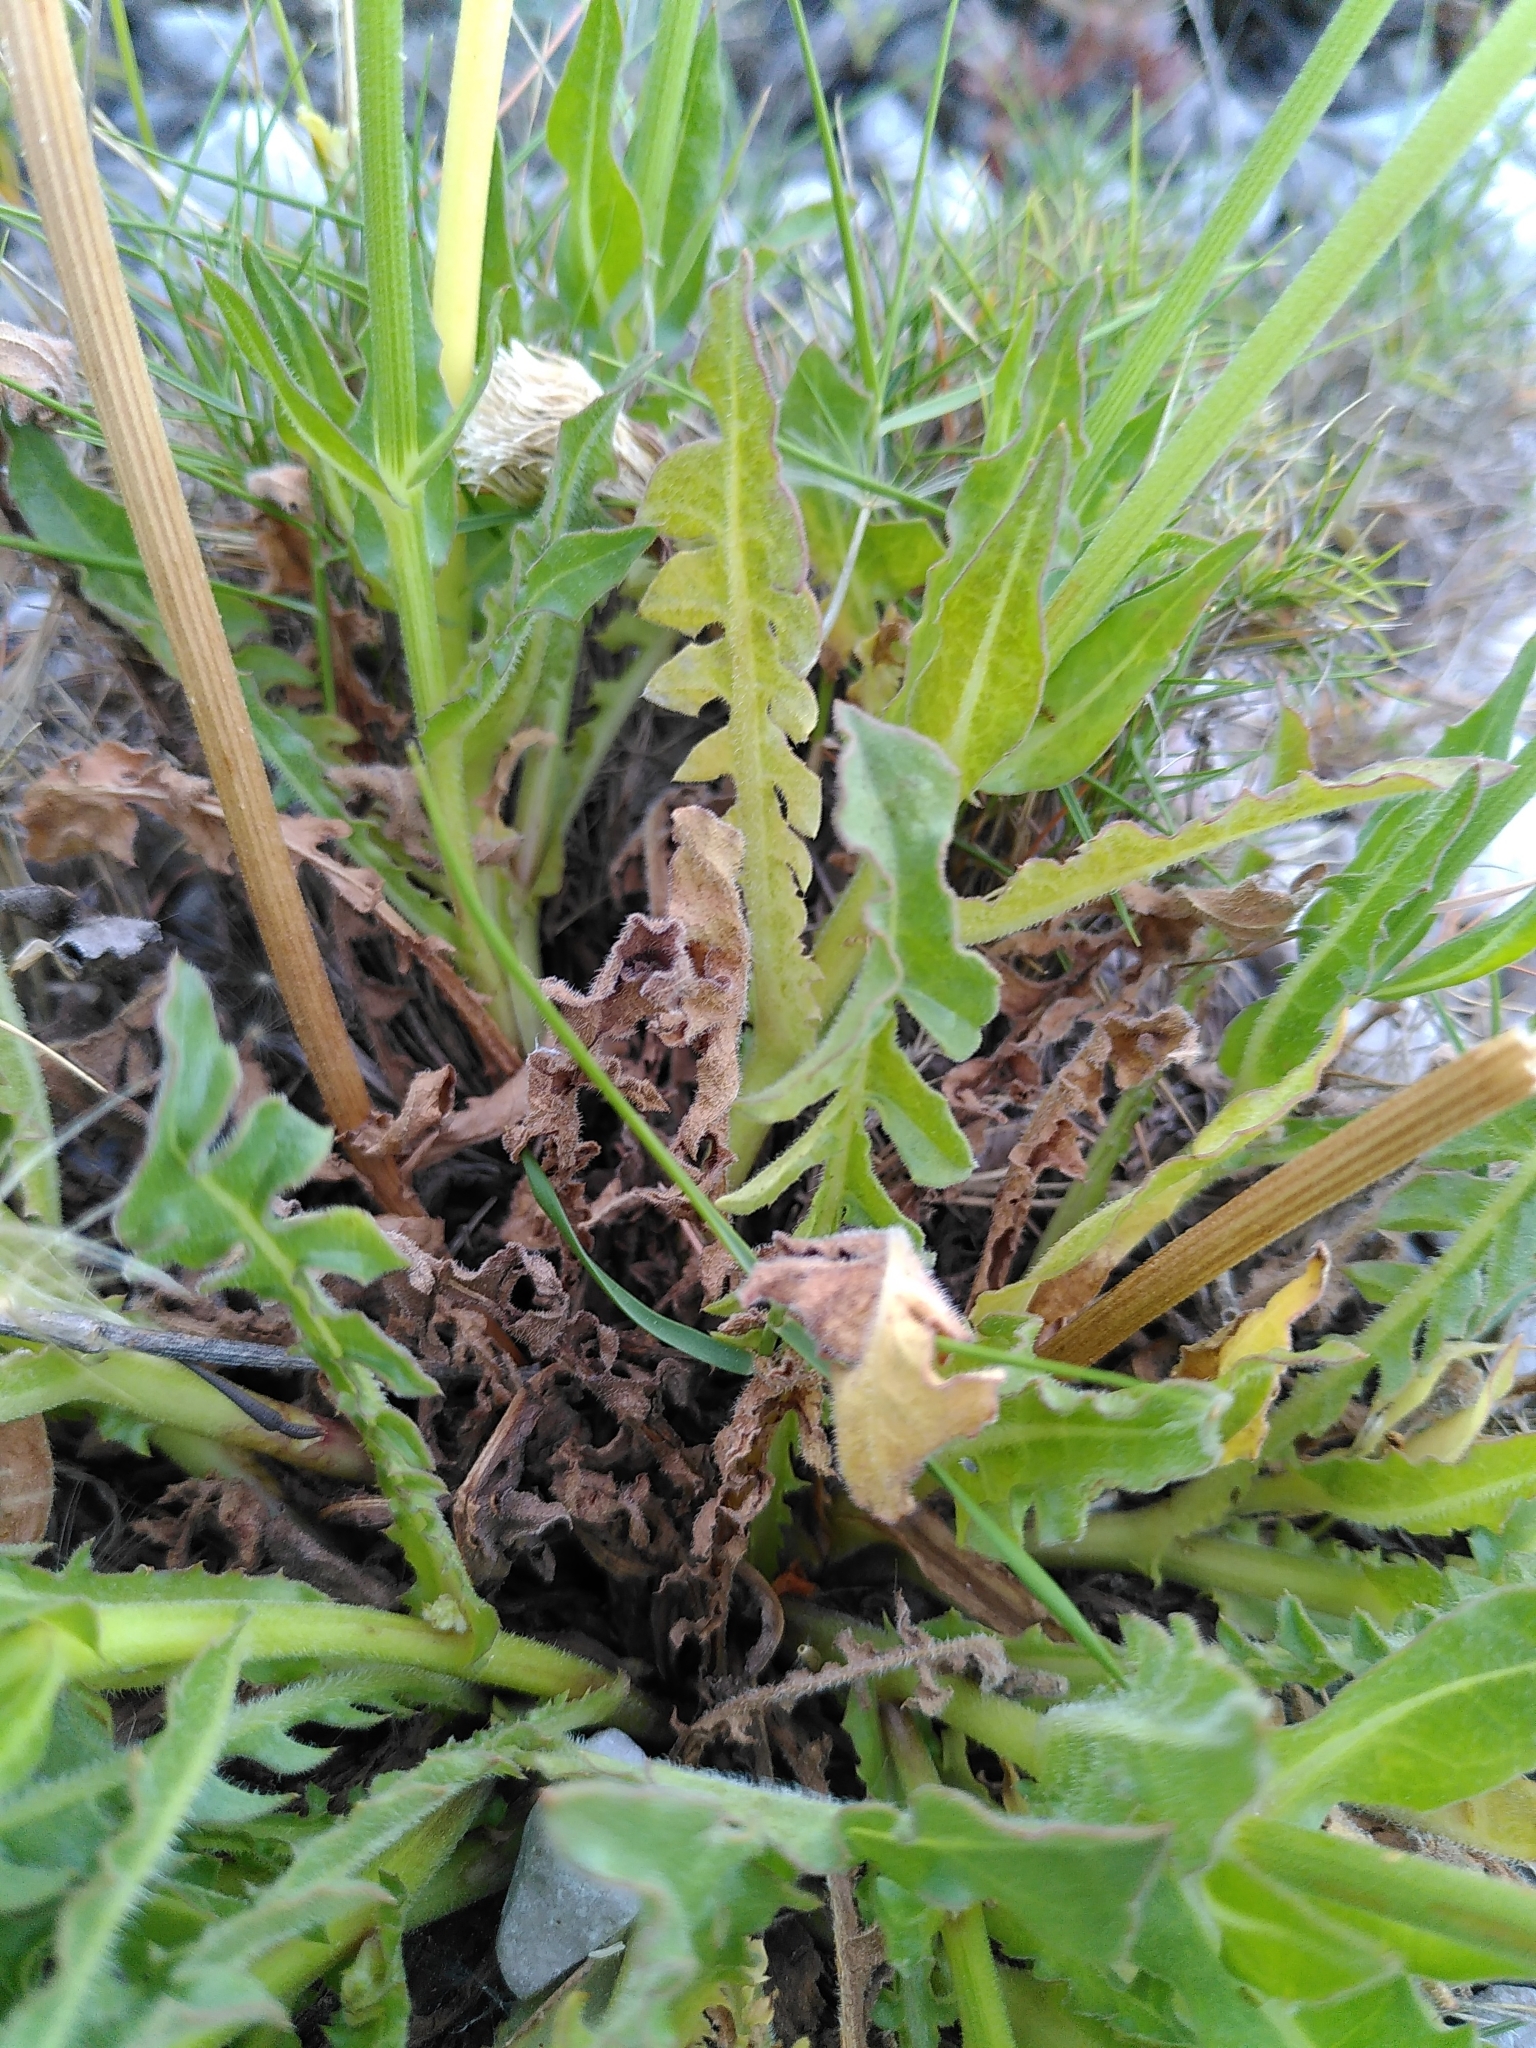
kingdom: Plantae
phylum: Tracheophyta
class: Magnoliopsida
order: Asterales
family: Asteraceae
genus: Urospermum
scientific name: Urospermum dalechampii
